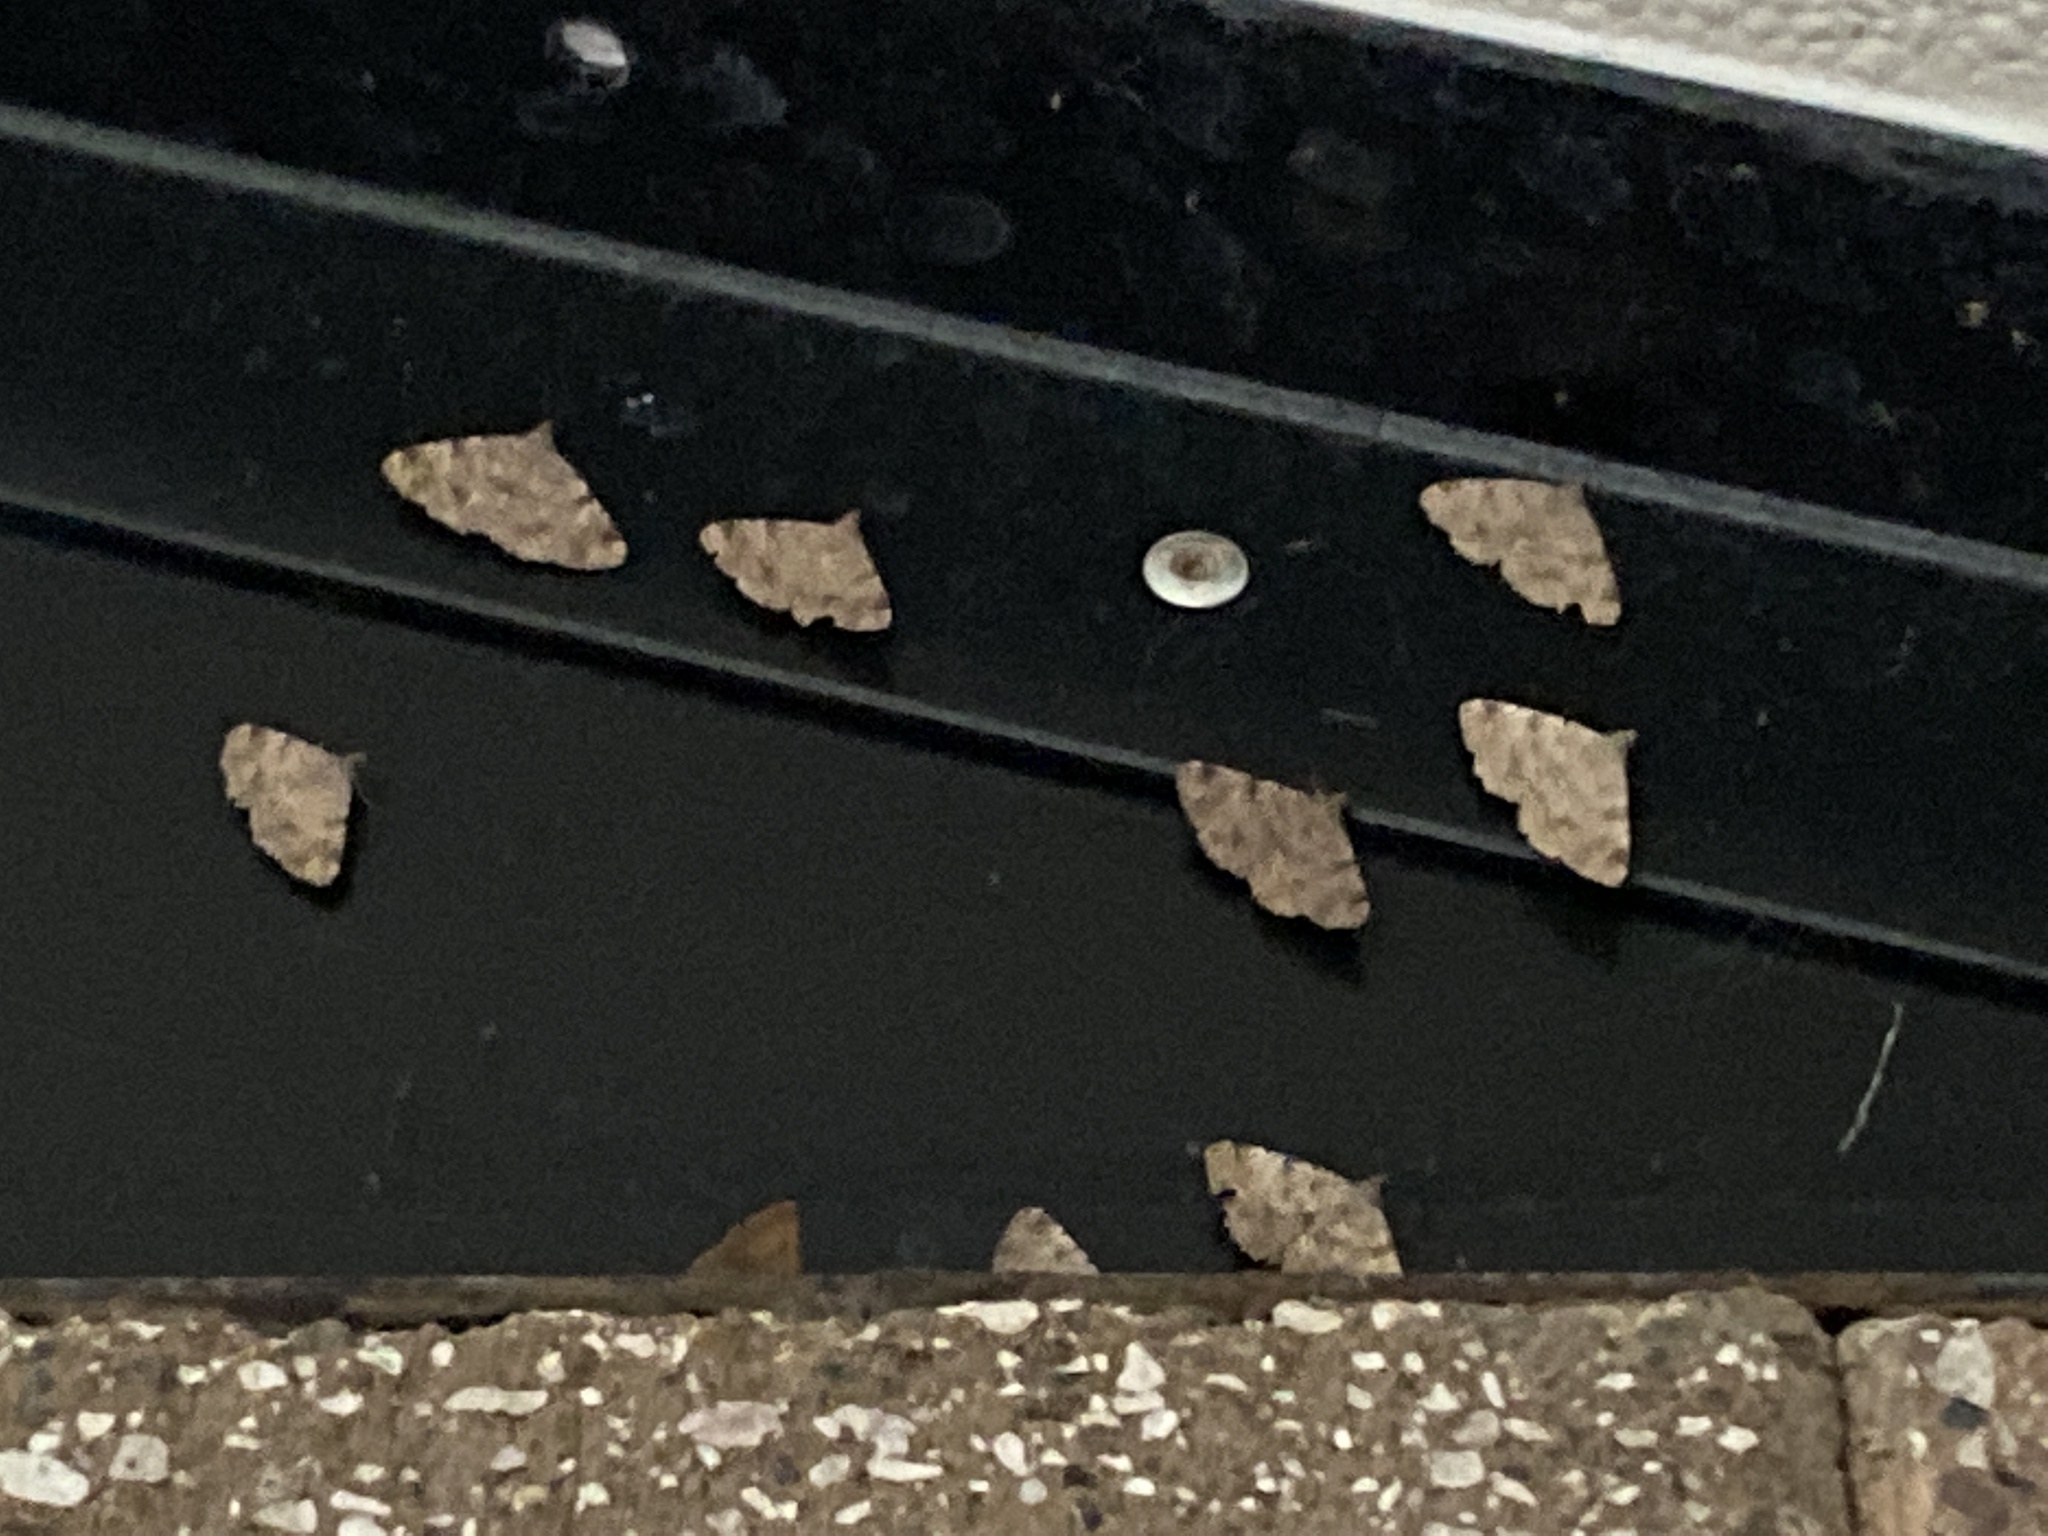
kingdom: Animalia
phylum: Arthropoda
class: Insecta
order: Lepidoptera
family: Erebidae
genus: Toxonprucha
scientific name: Toxonprucha volucris
